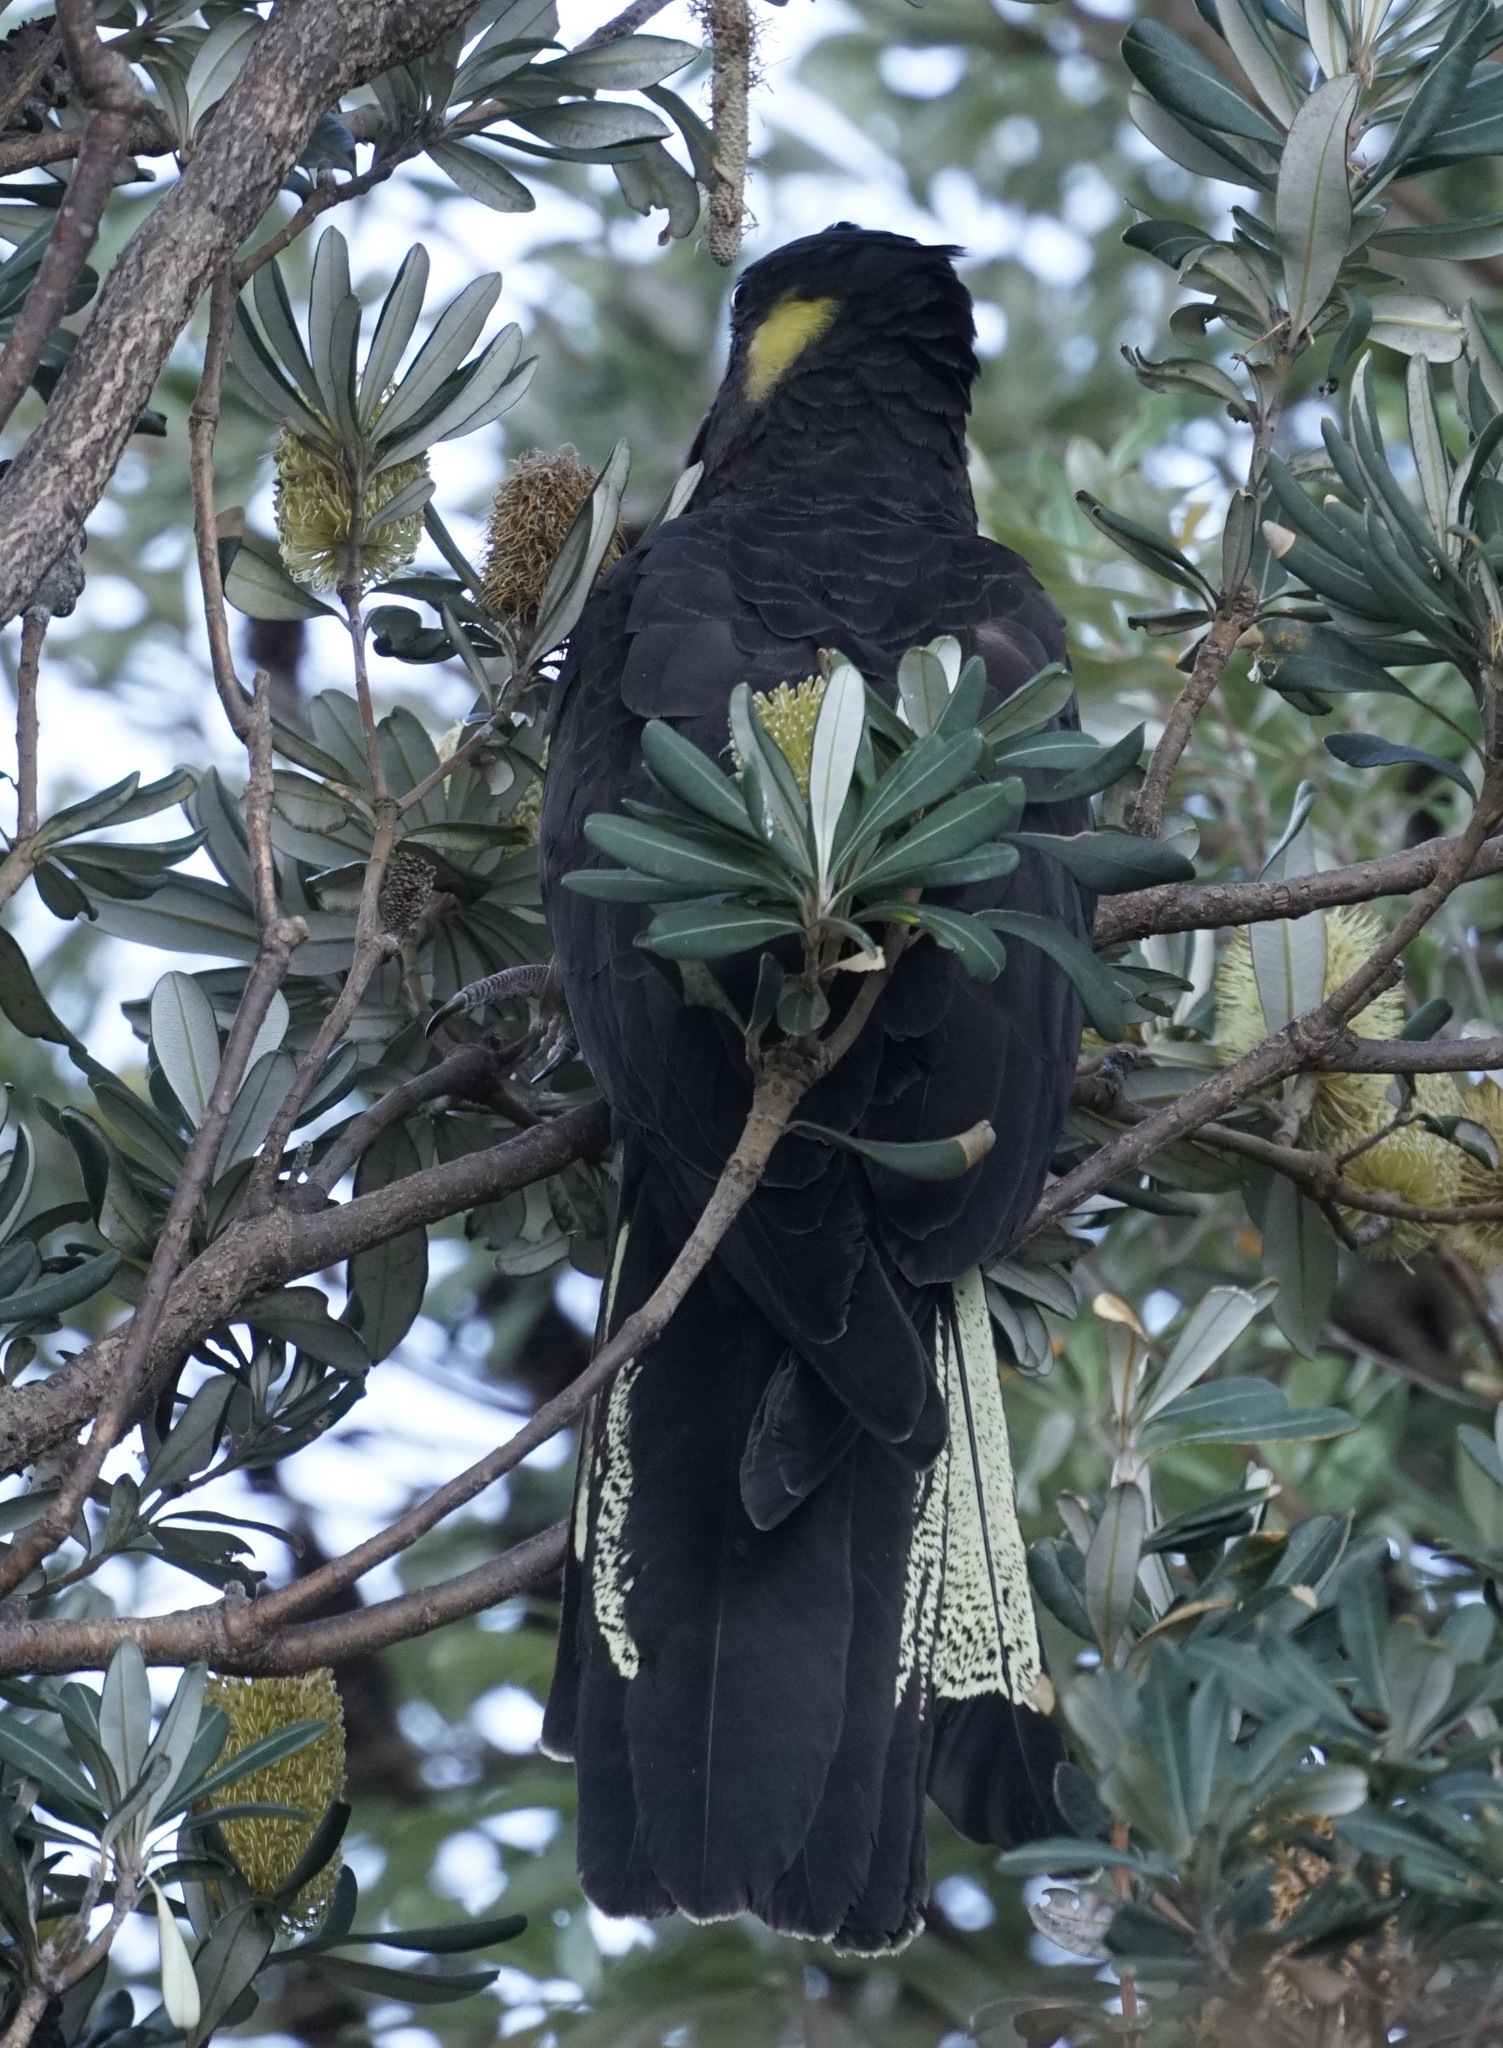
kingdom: Animalia
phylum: Chordata
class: Aves
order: Psittaciformes
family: Cacatuidae
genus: Zanda
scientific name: Zanda funerea
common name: Yellow-tailed black-cockatoo
